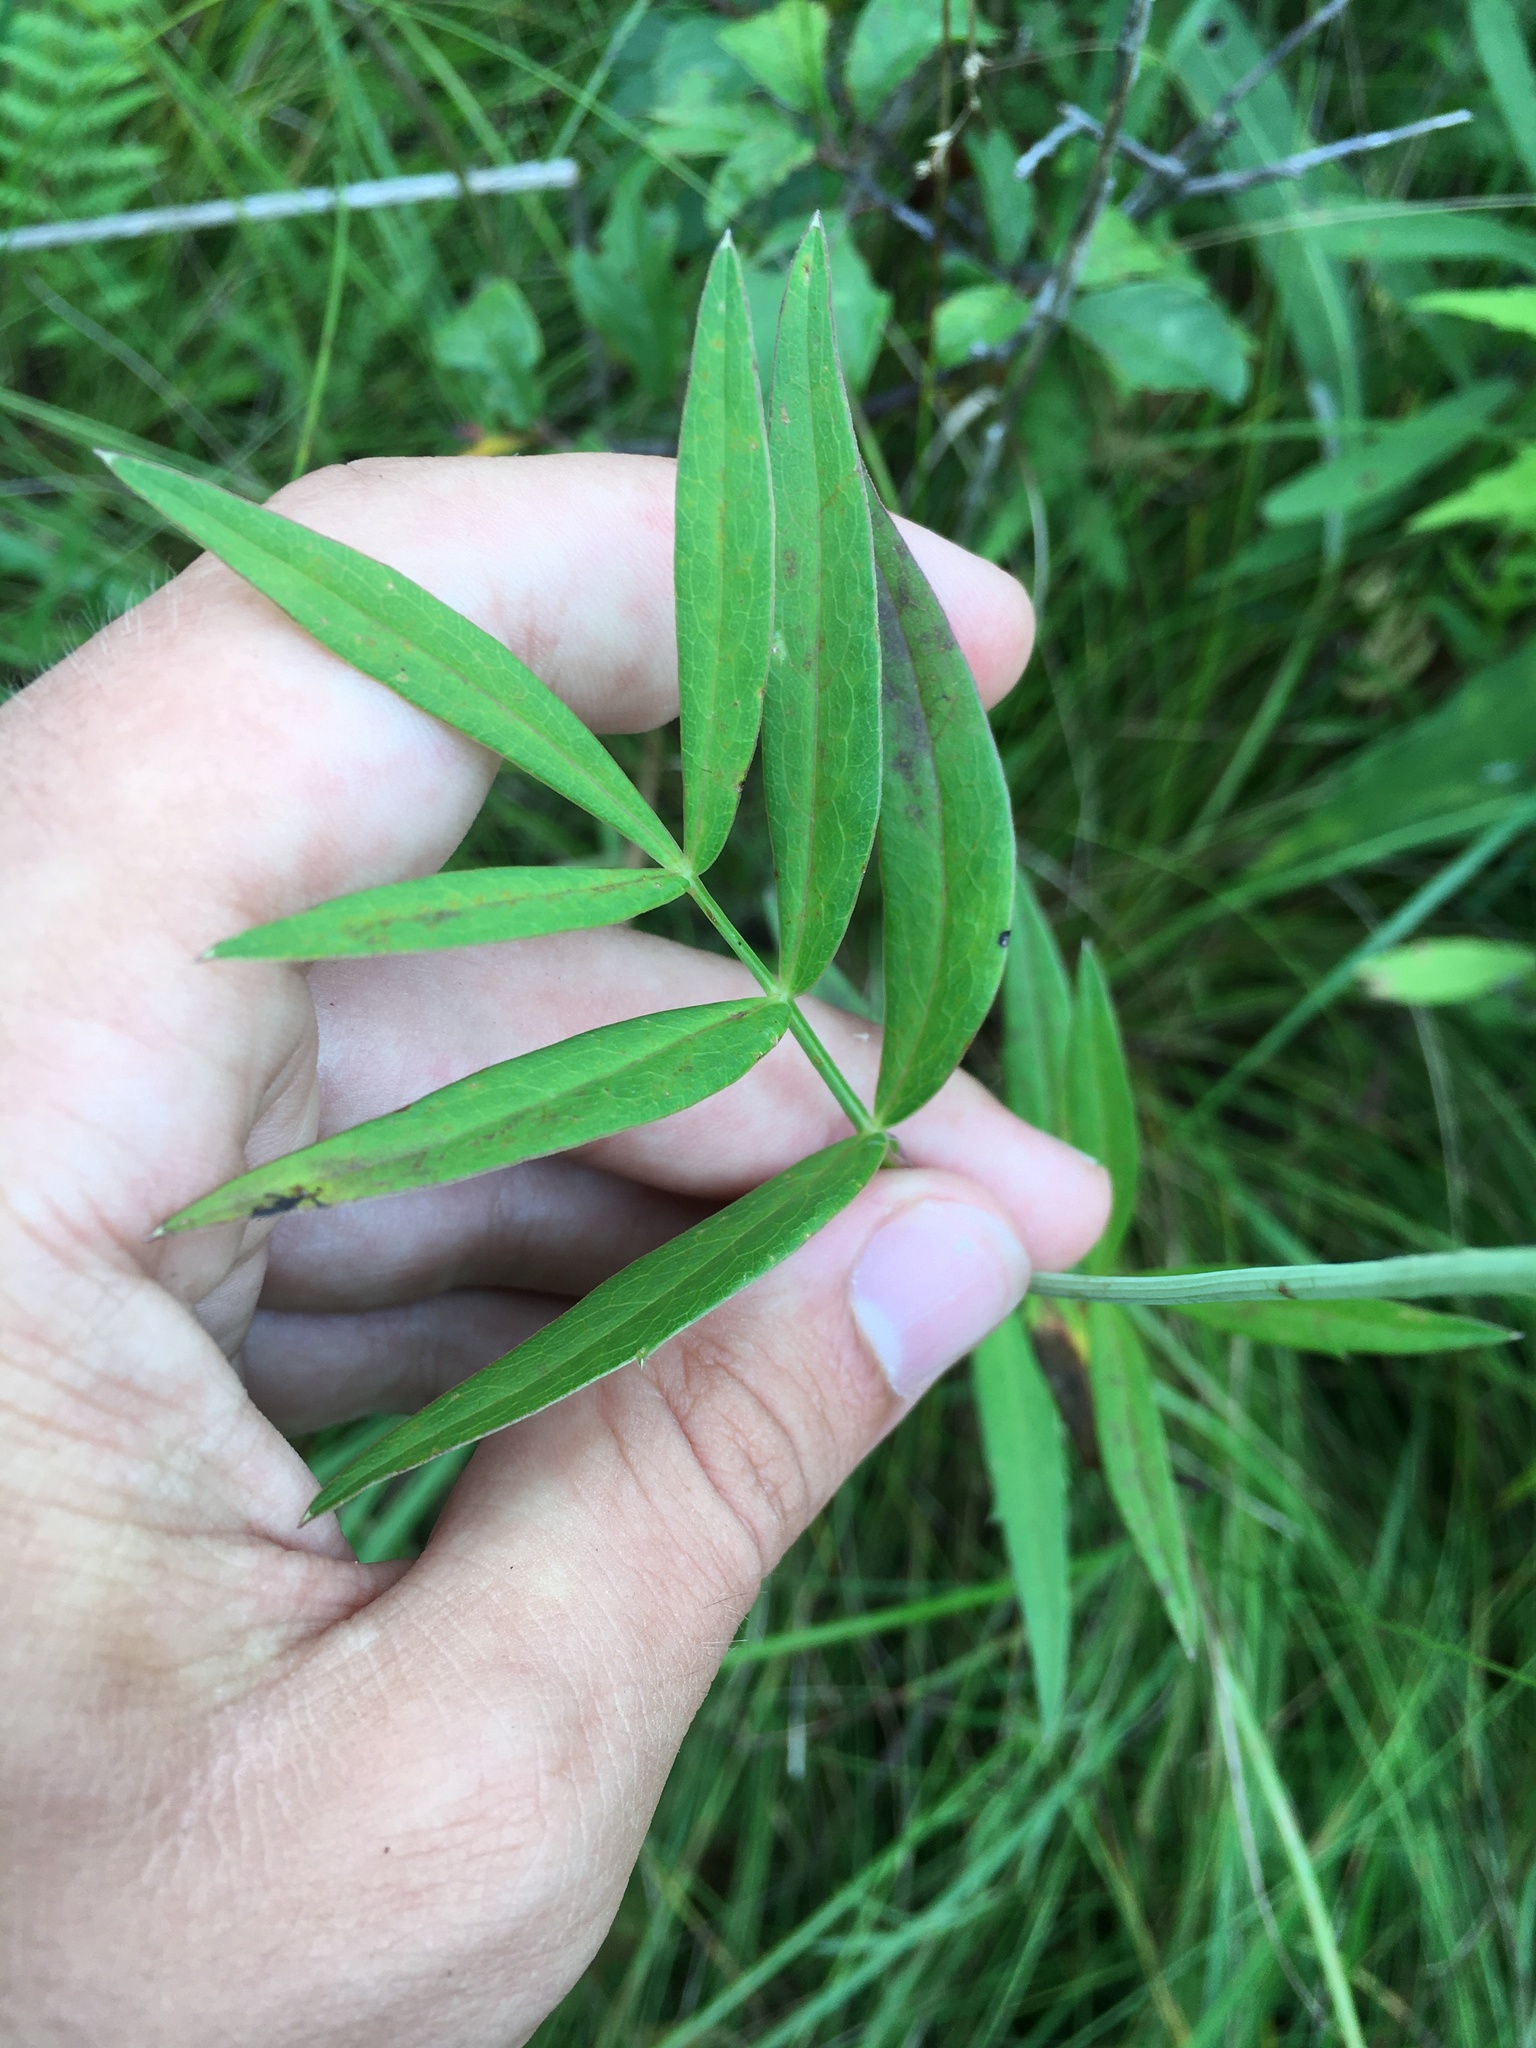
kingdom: Plantae
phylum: Tracheophyta
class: Magnoliopsida
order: Apiales
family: Apiaceae
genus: Oxypolis
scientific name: Oxypolis rigidior
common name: Cowbane
